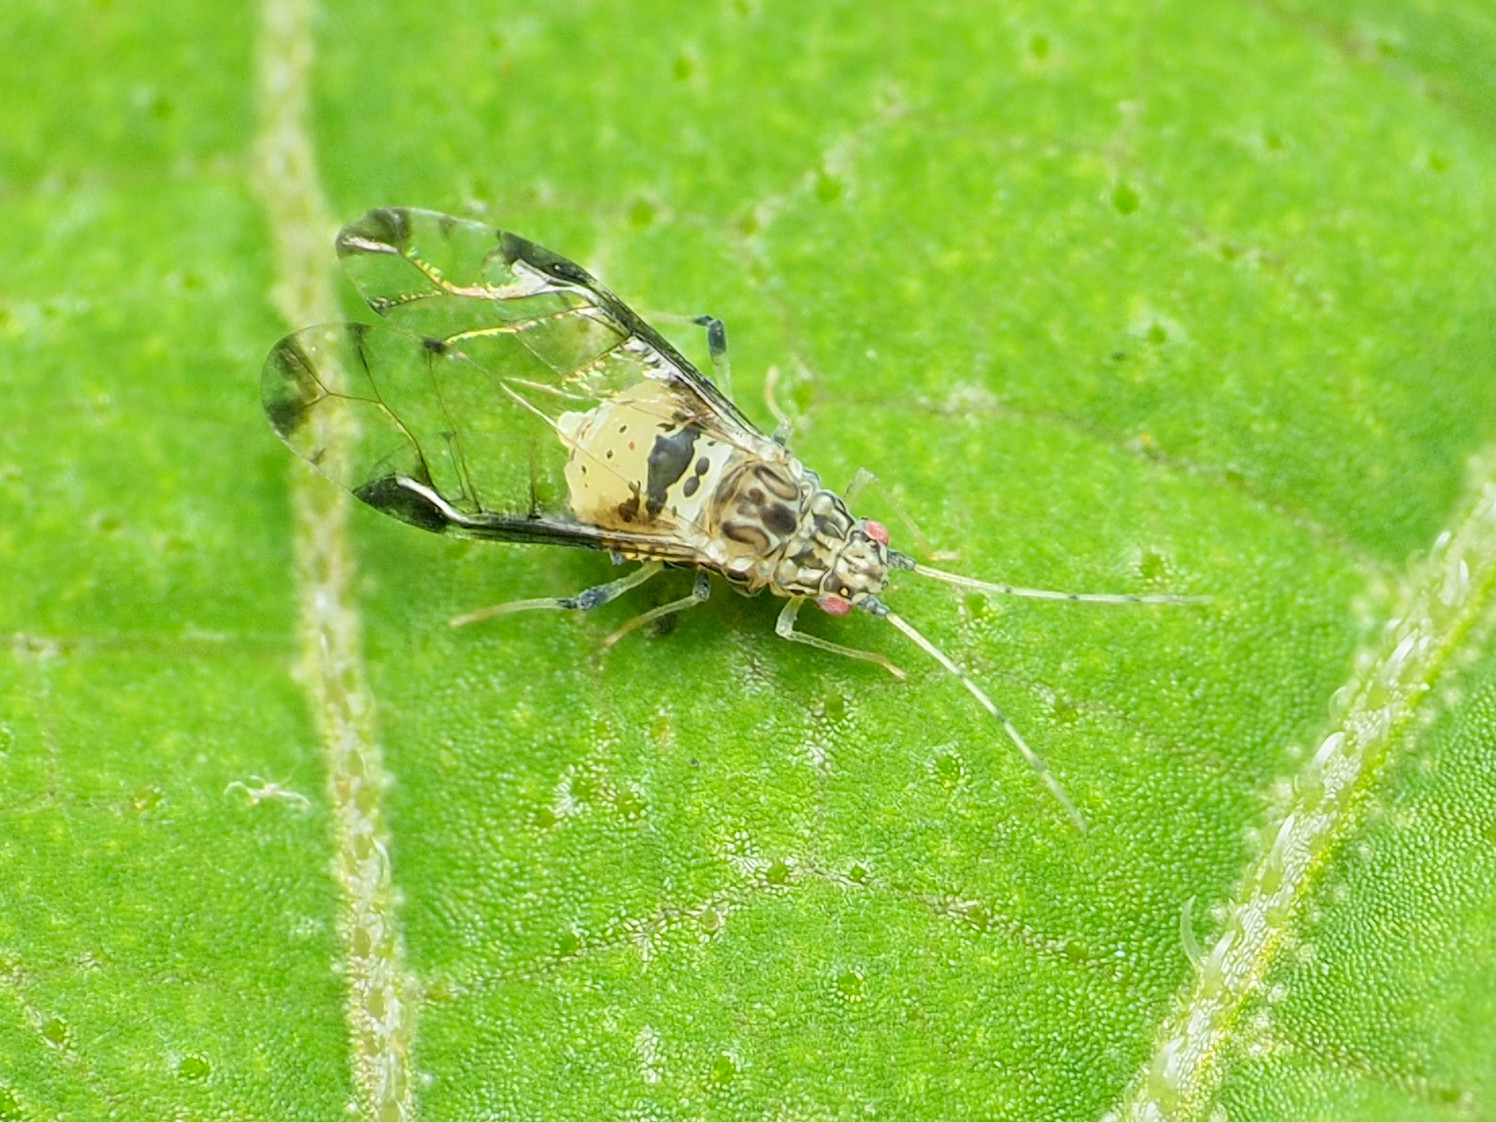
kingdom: Animalia
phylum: Arthropoda
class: Insecta
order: Hemiptera
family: Aphididae
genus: Sarucallis
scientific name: Sarucallis kahawaluokalani
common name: Crapemyrtle aphid
